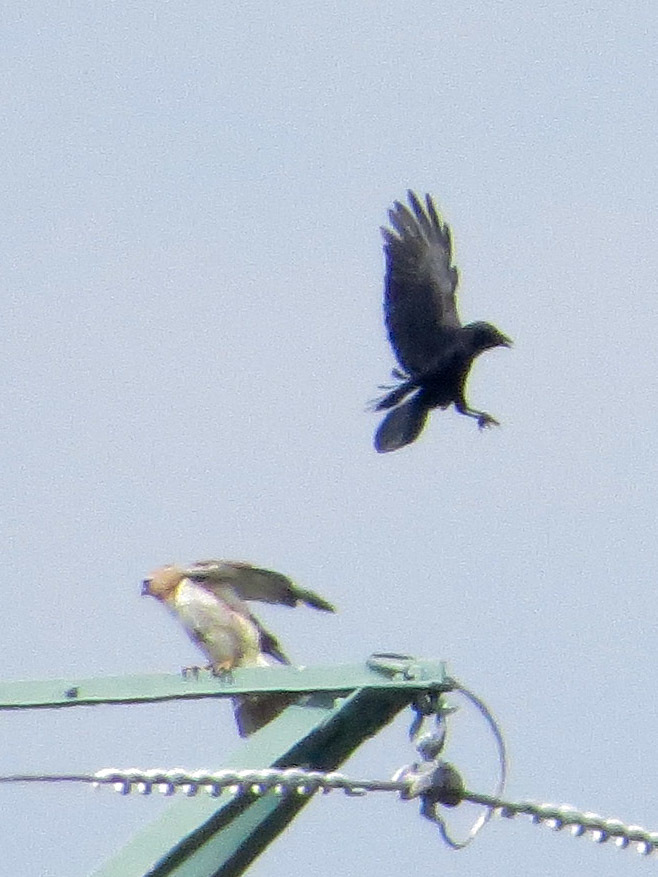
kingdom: Animalia
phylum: Chordata
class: Aves
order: Passeriformes
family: Corvidae
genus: Corvus
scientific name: Corvus brachyrhynchos
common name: American crow
